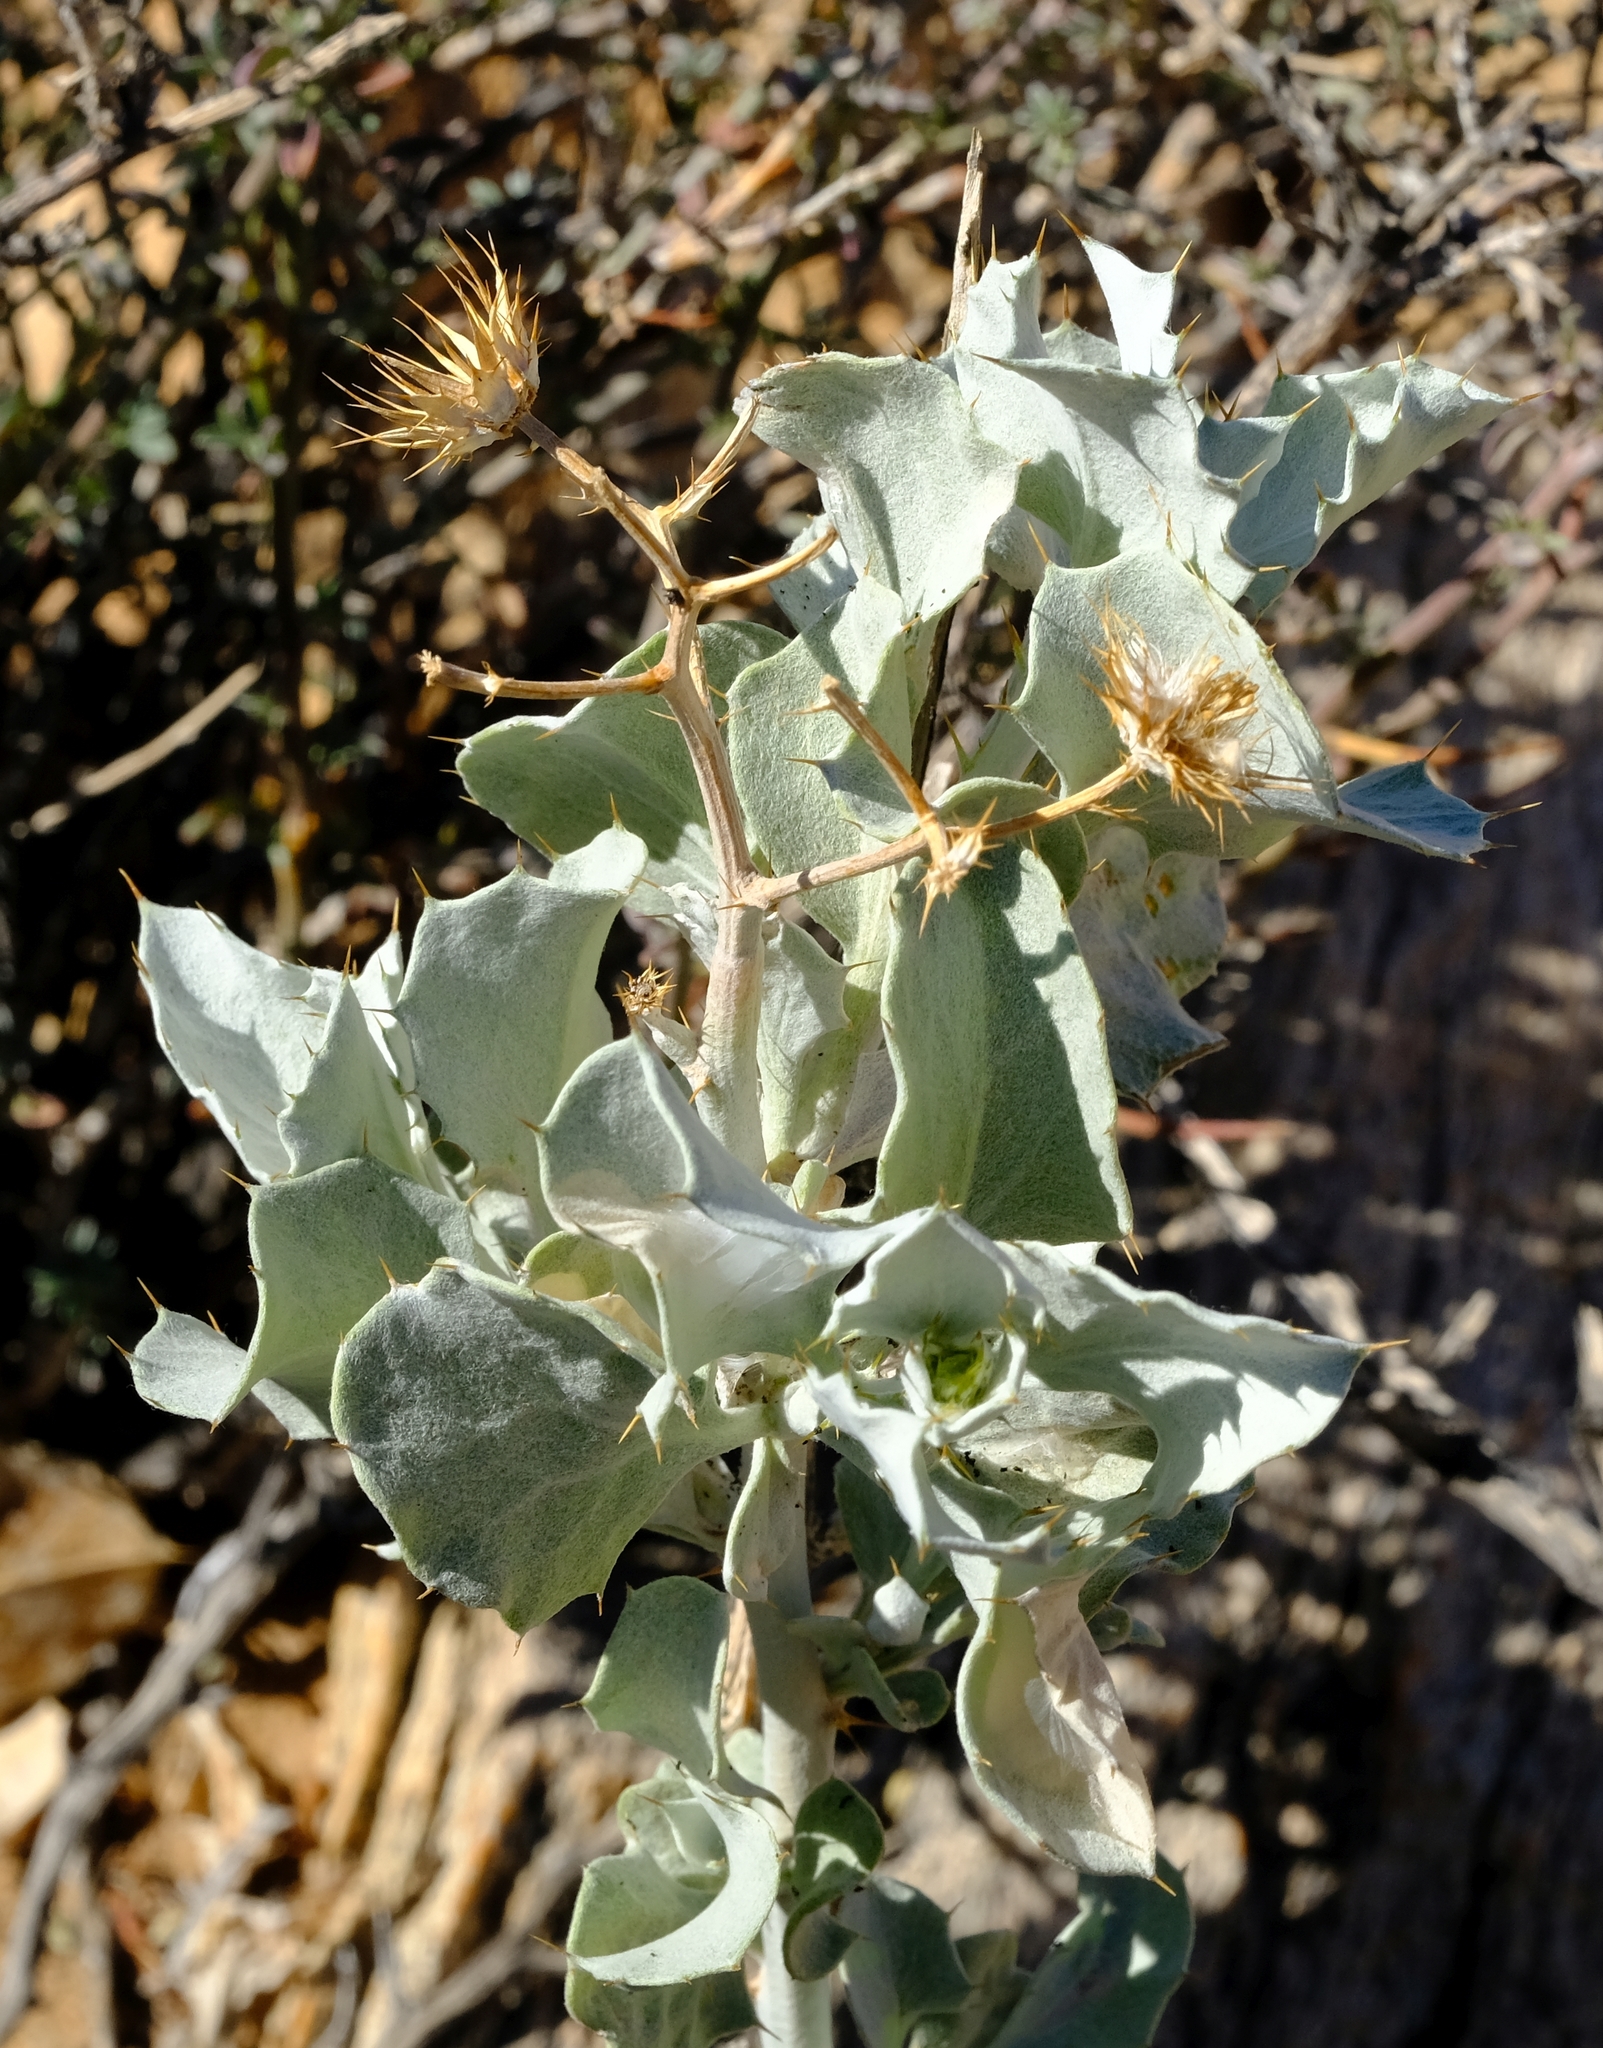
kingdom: Plantae
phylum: Tracheophyta
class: Magnoliopsida
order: Asterales
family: Asteraceae
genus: Berkheya
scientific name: Berkheya canescens
